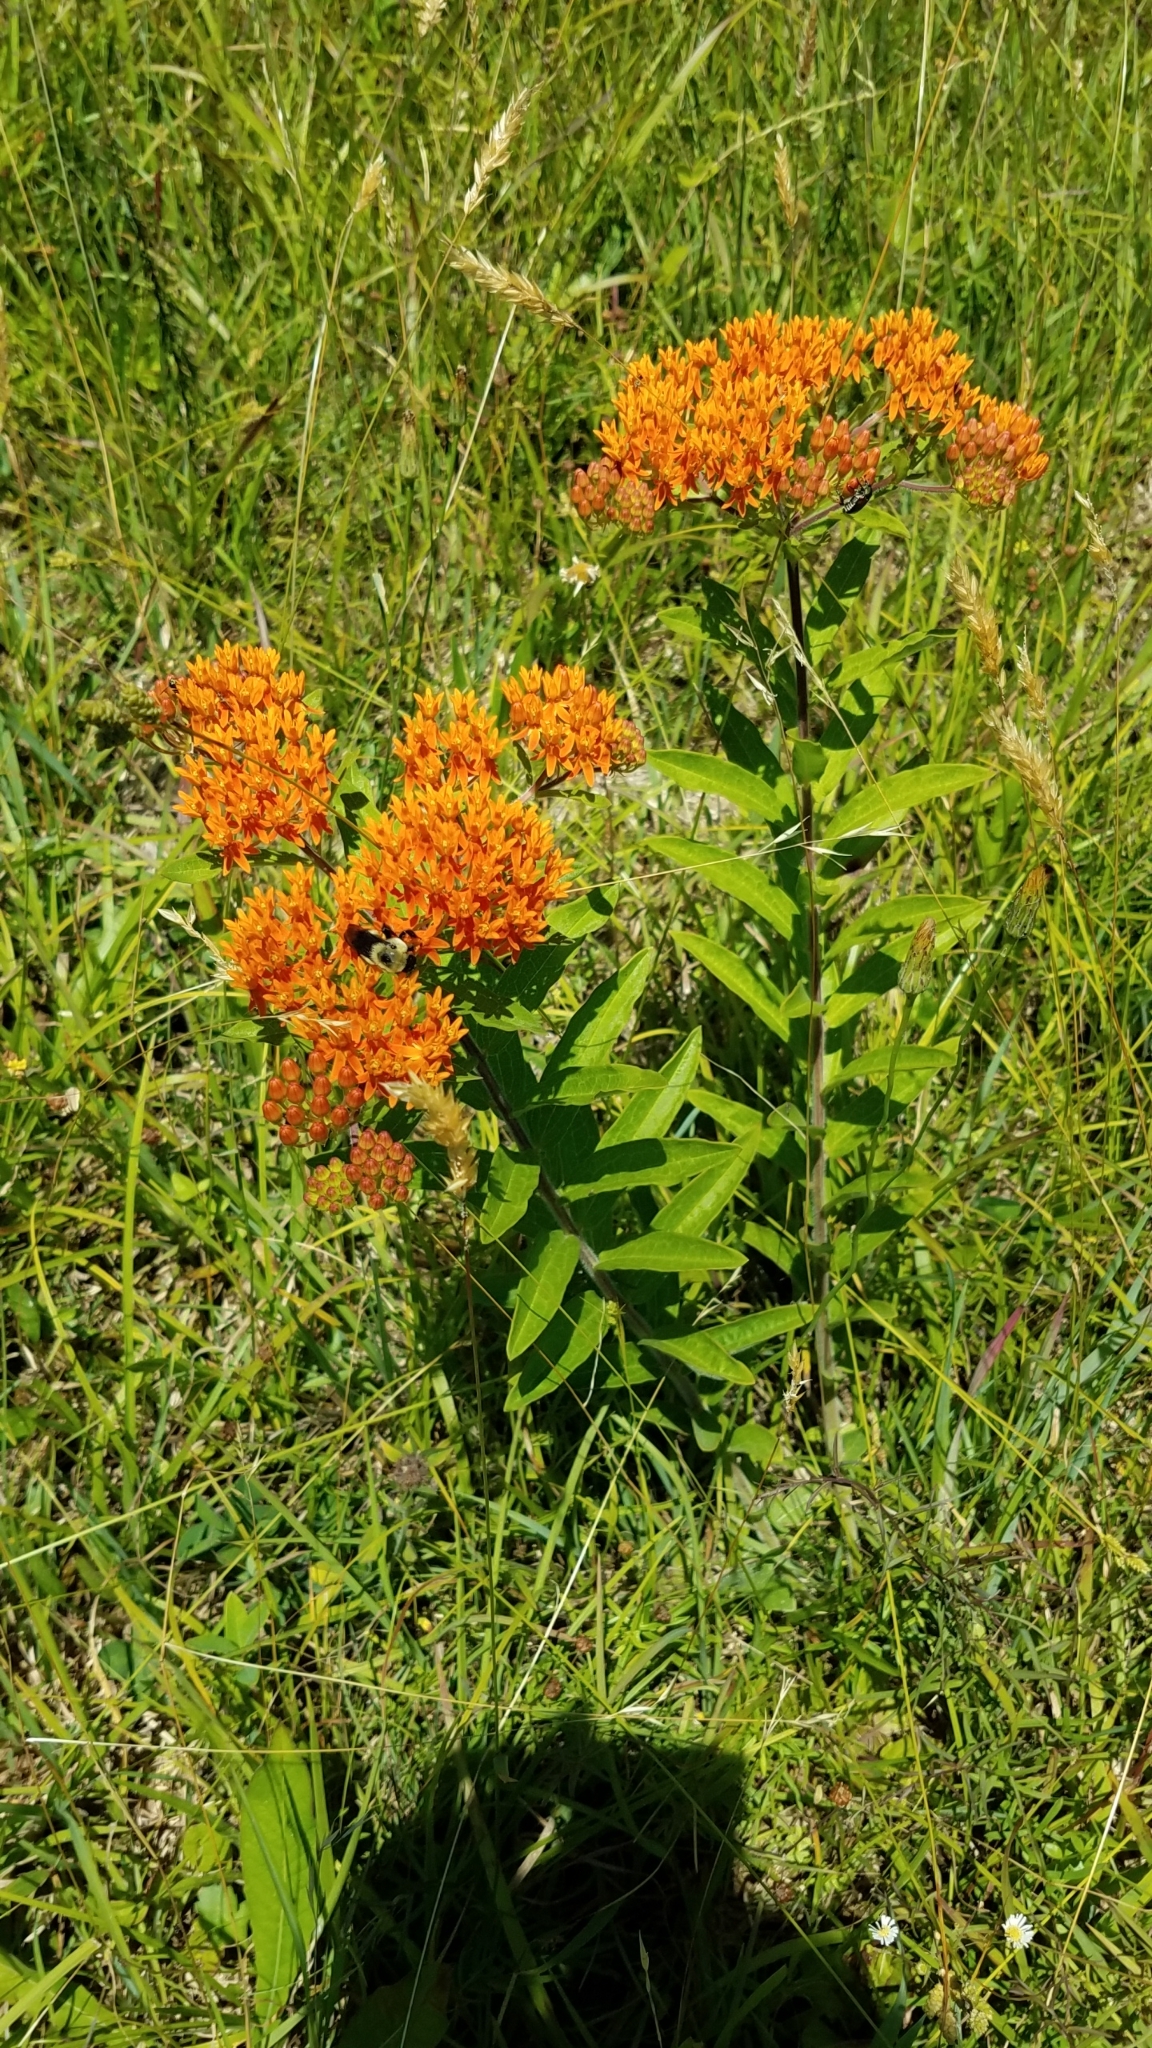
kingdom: Plantae
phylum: Tracheophyta
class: Magnoliopsida
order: Gentianales
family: Apocynaceae
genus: Asclepias
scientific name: Asclepias tuberosa
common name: Butterfly milkweed
